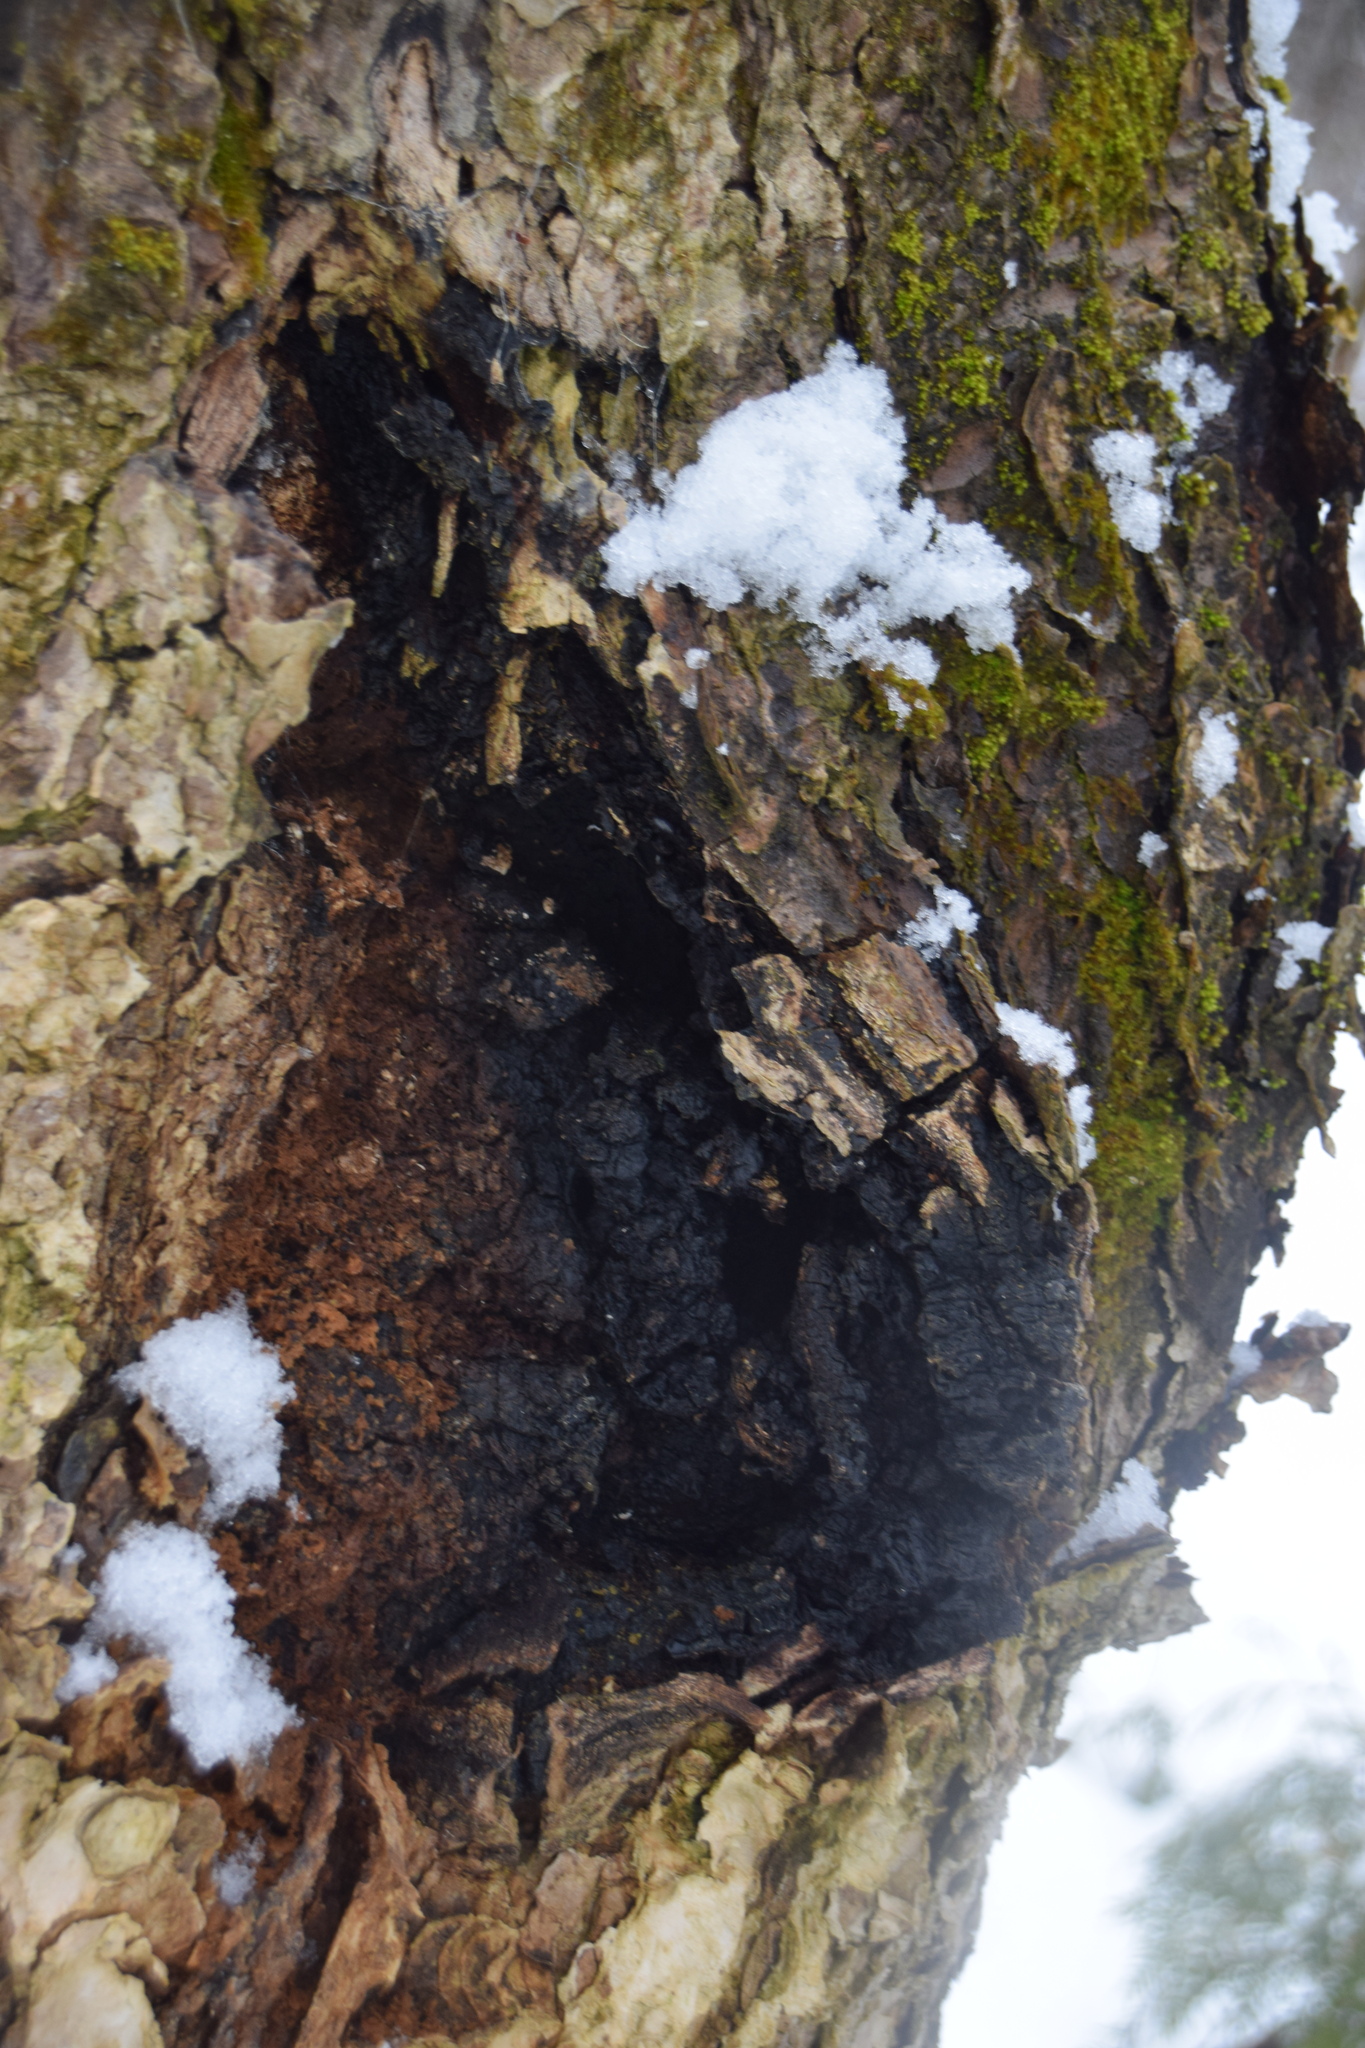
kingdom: Fungi
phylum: Basidiomycota
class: Agaricomycetes
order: Hymenochaetales
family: Hymenochaetaceae
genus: Inonotus
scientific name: Inonotus obliquus
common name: Chaga
